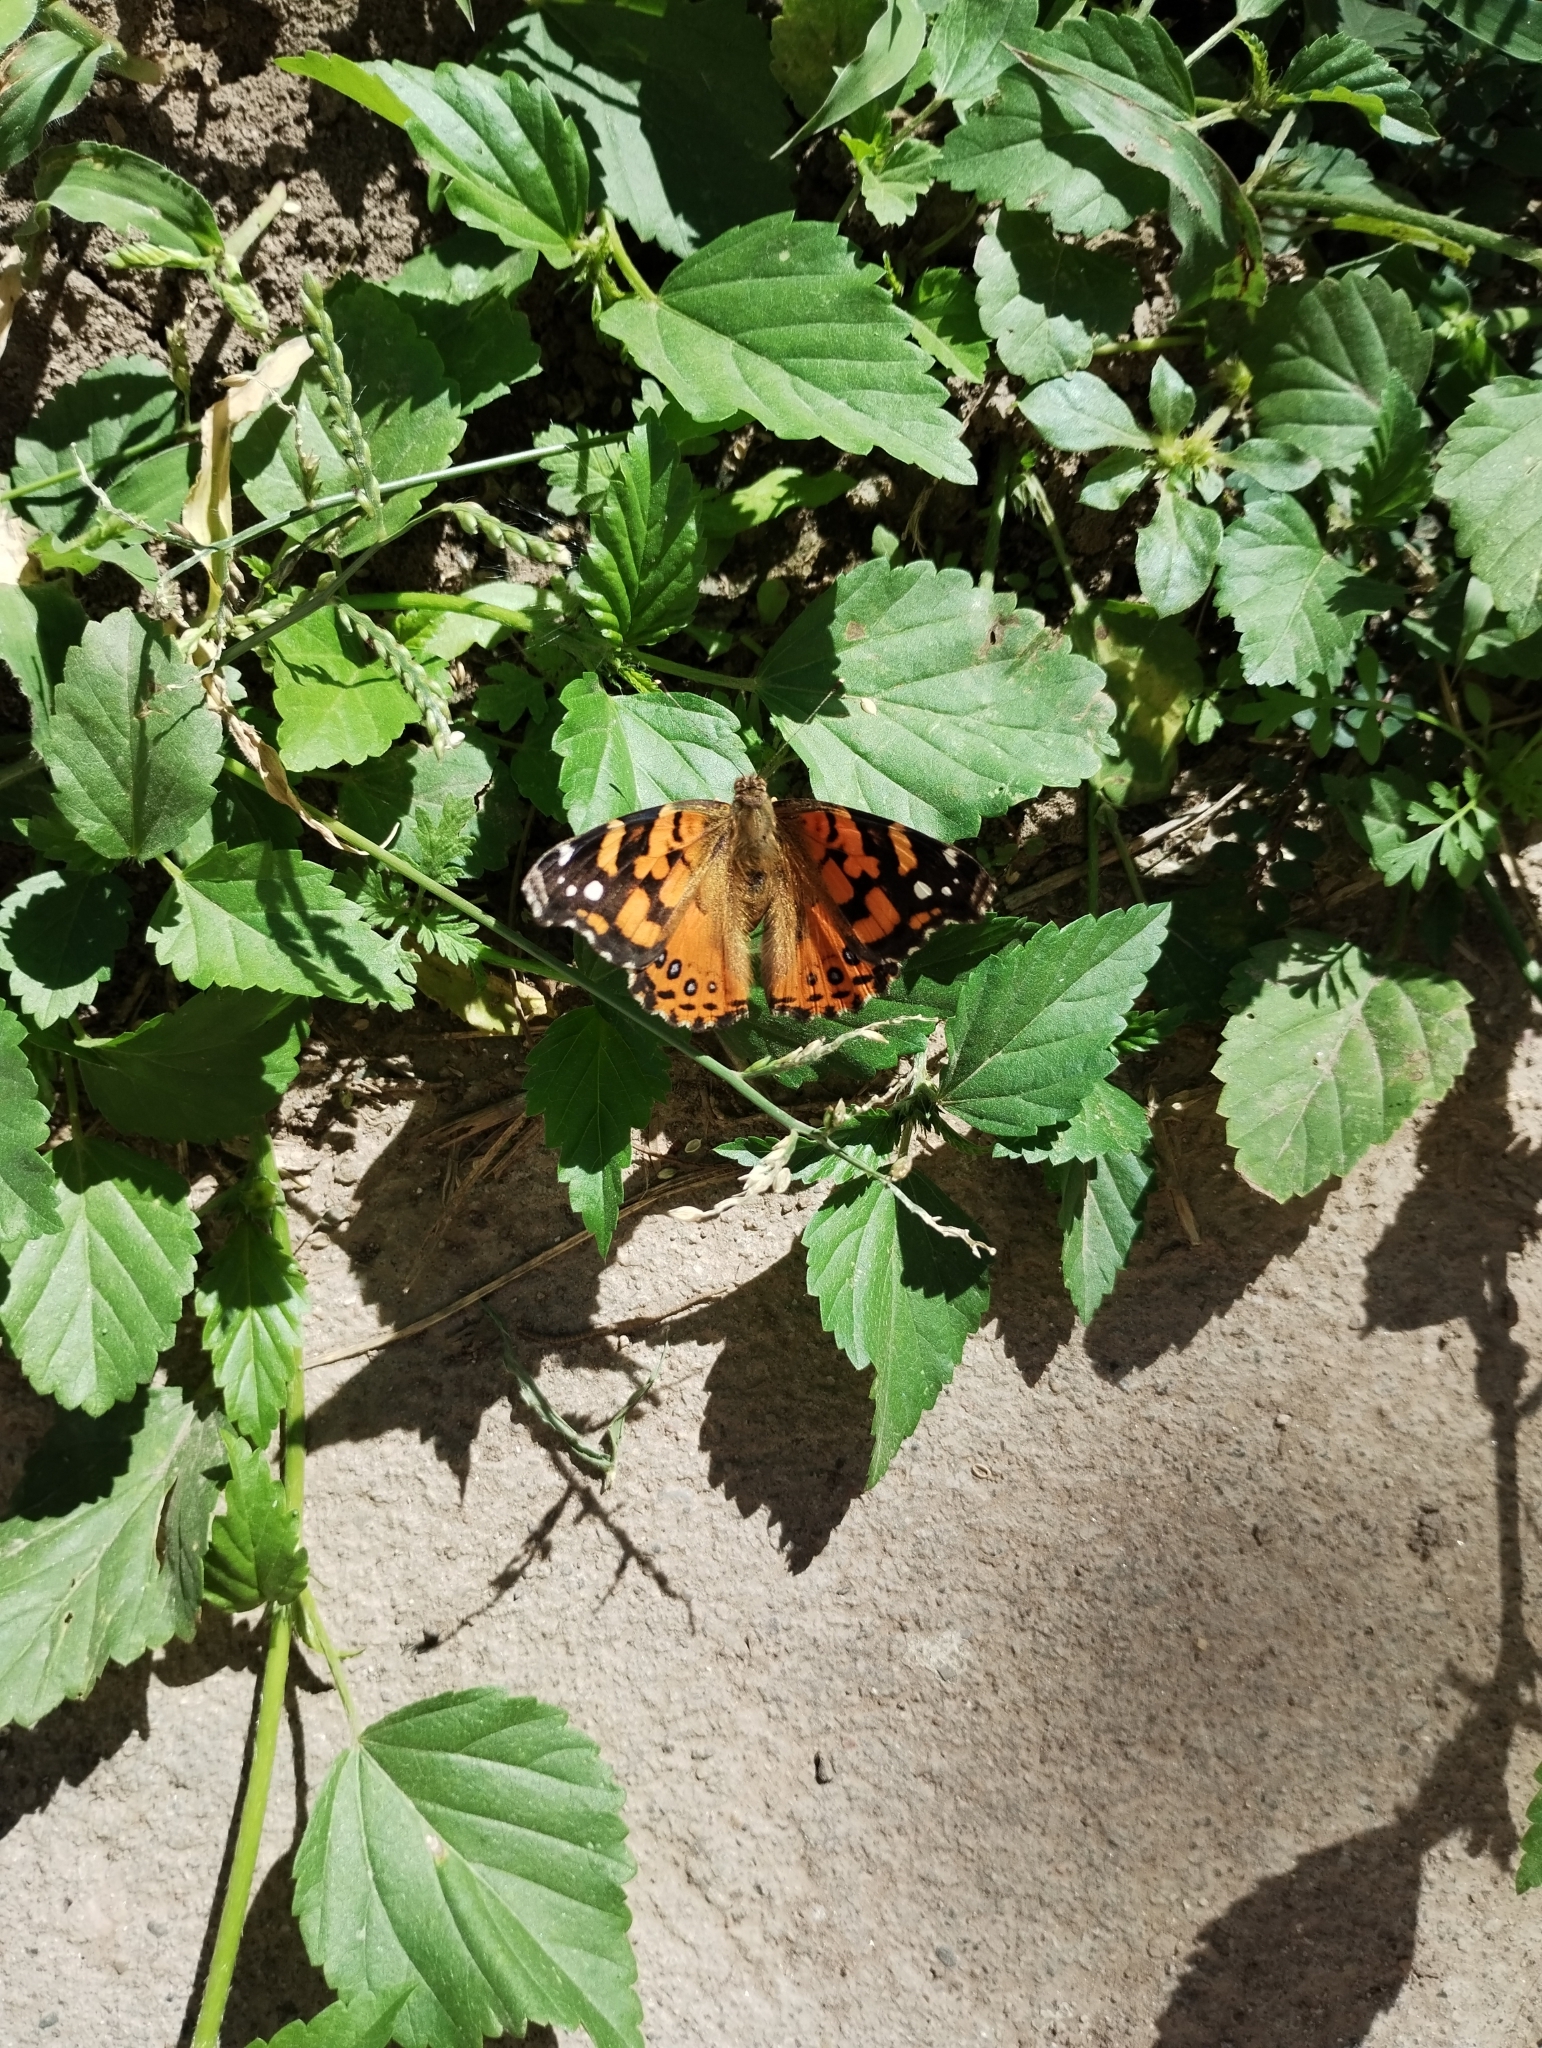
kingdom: Animalia
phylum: Arthropoda
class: Insecta
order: Lepidoptera
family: Nymphalidae
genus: Vanessa
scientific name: Vanessa carye
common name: Subtropical lady
